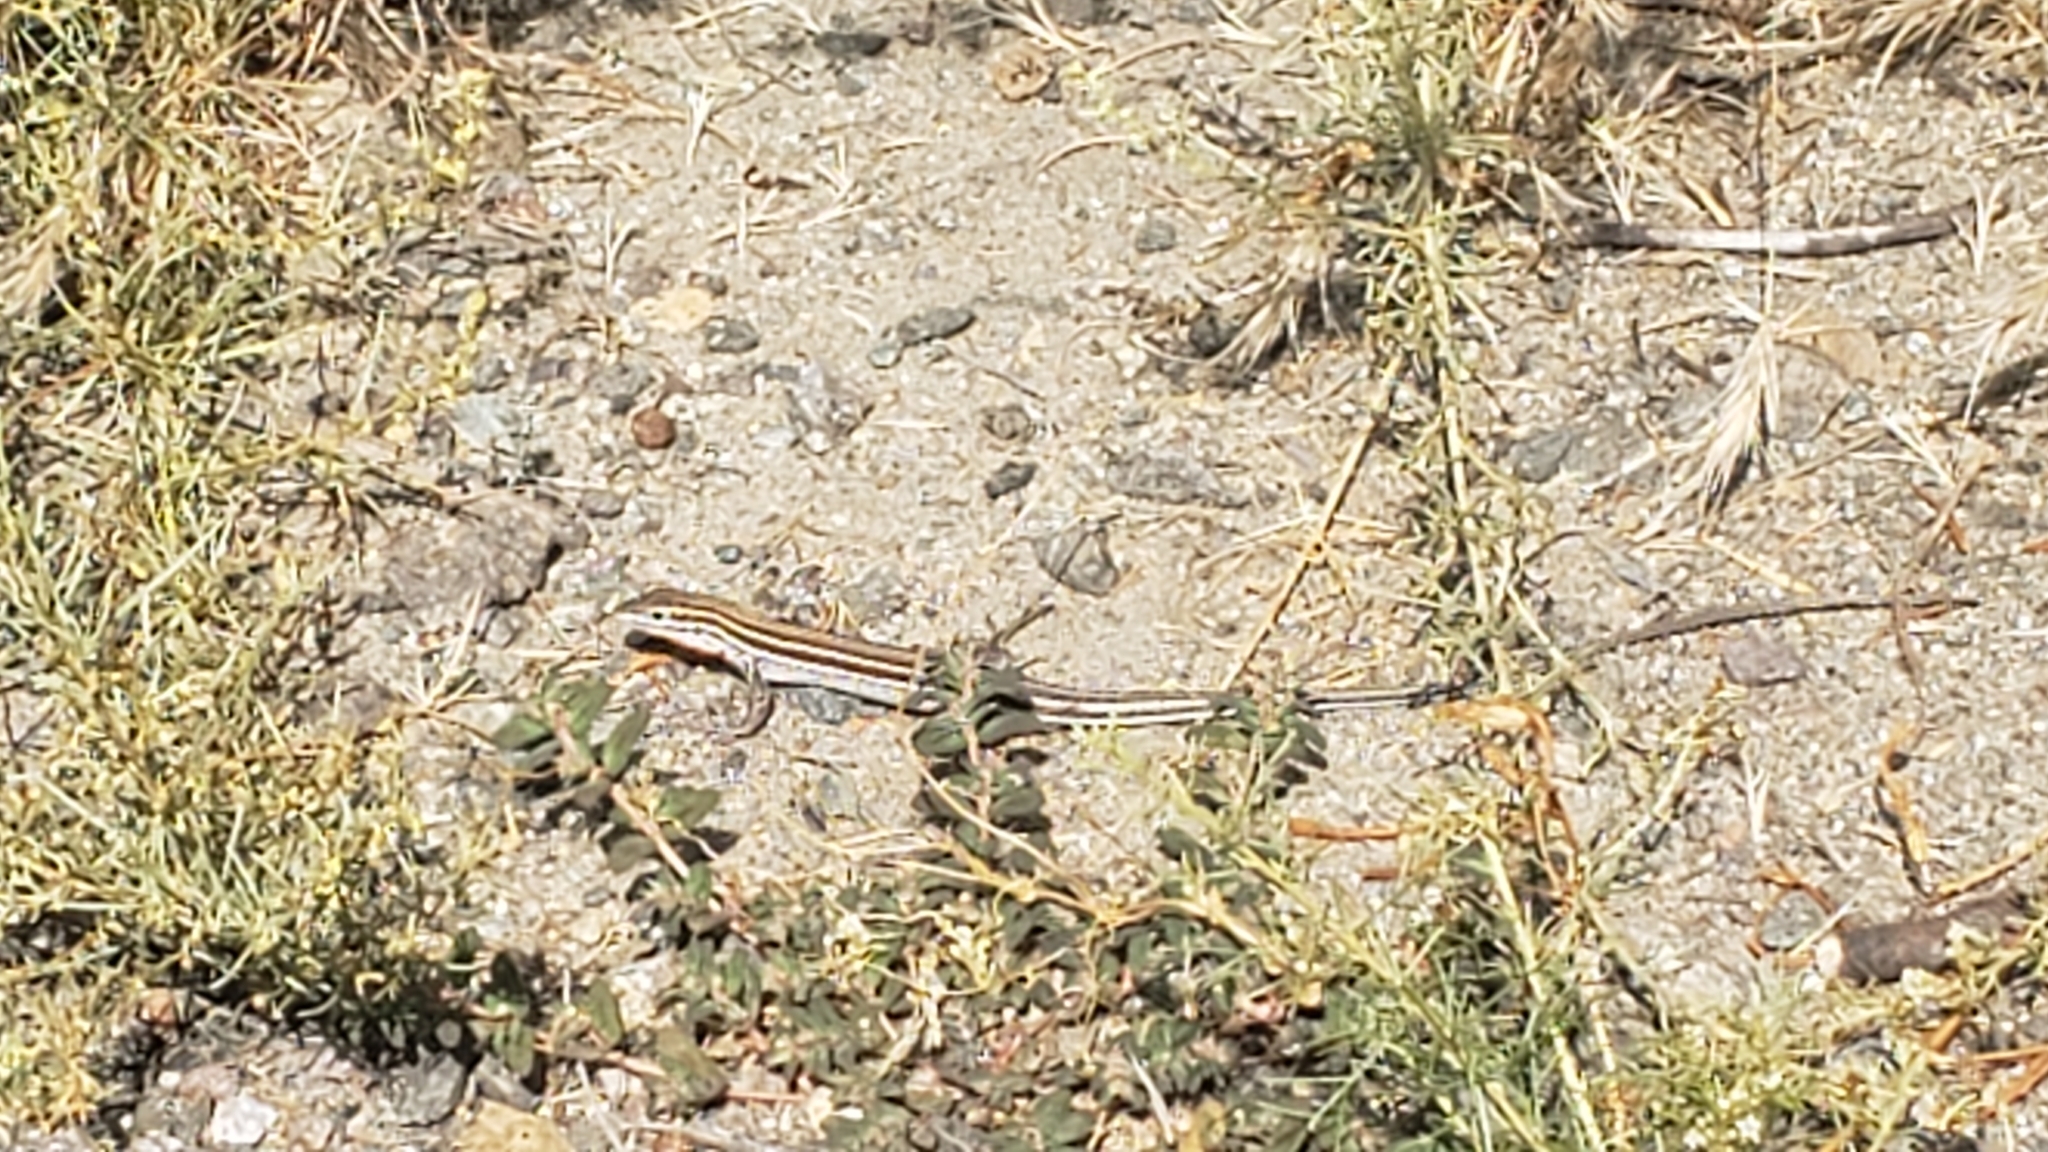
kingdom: Animalia
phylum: Chordata
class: Squamata
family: Teiidae
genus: Aspidoscelis
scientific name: Aspidoscelis hyperythrus
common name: Orange-throated race-runner
